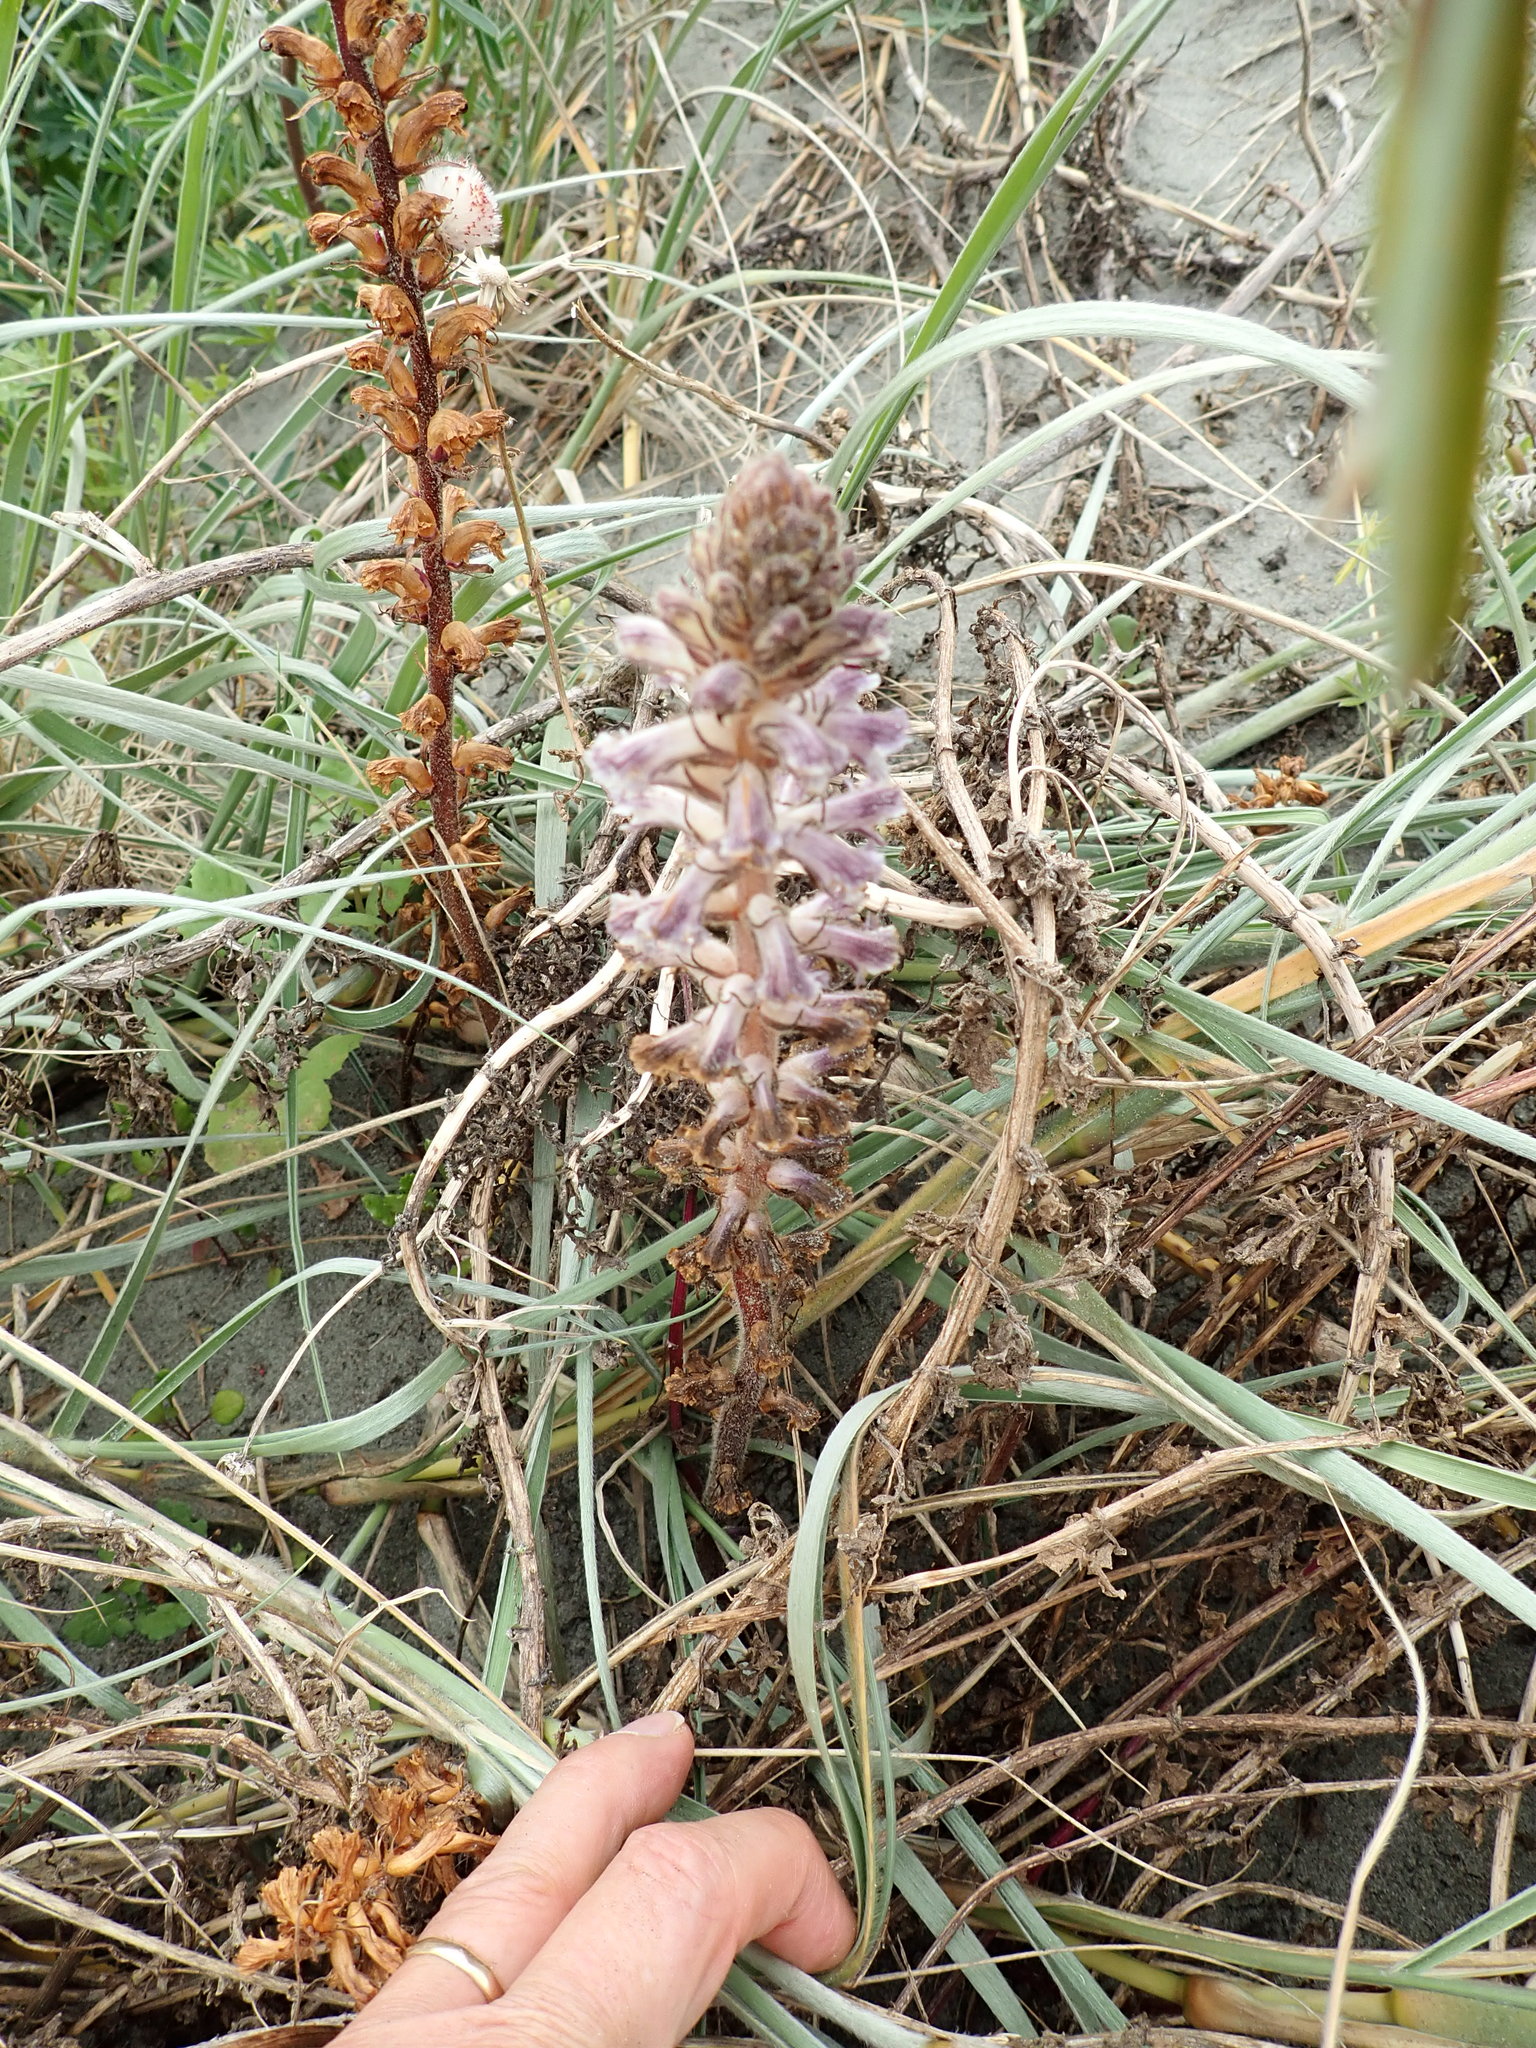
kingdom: Plantae
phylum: Tracheophyta
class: Magnoliopsida
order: Lamiales
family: Orobanchaceae
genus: Orobanche
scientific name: Orobanche minor
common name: Common broomrape
